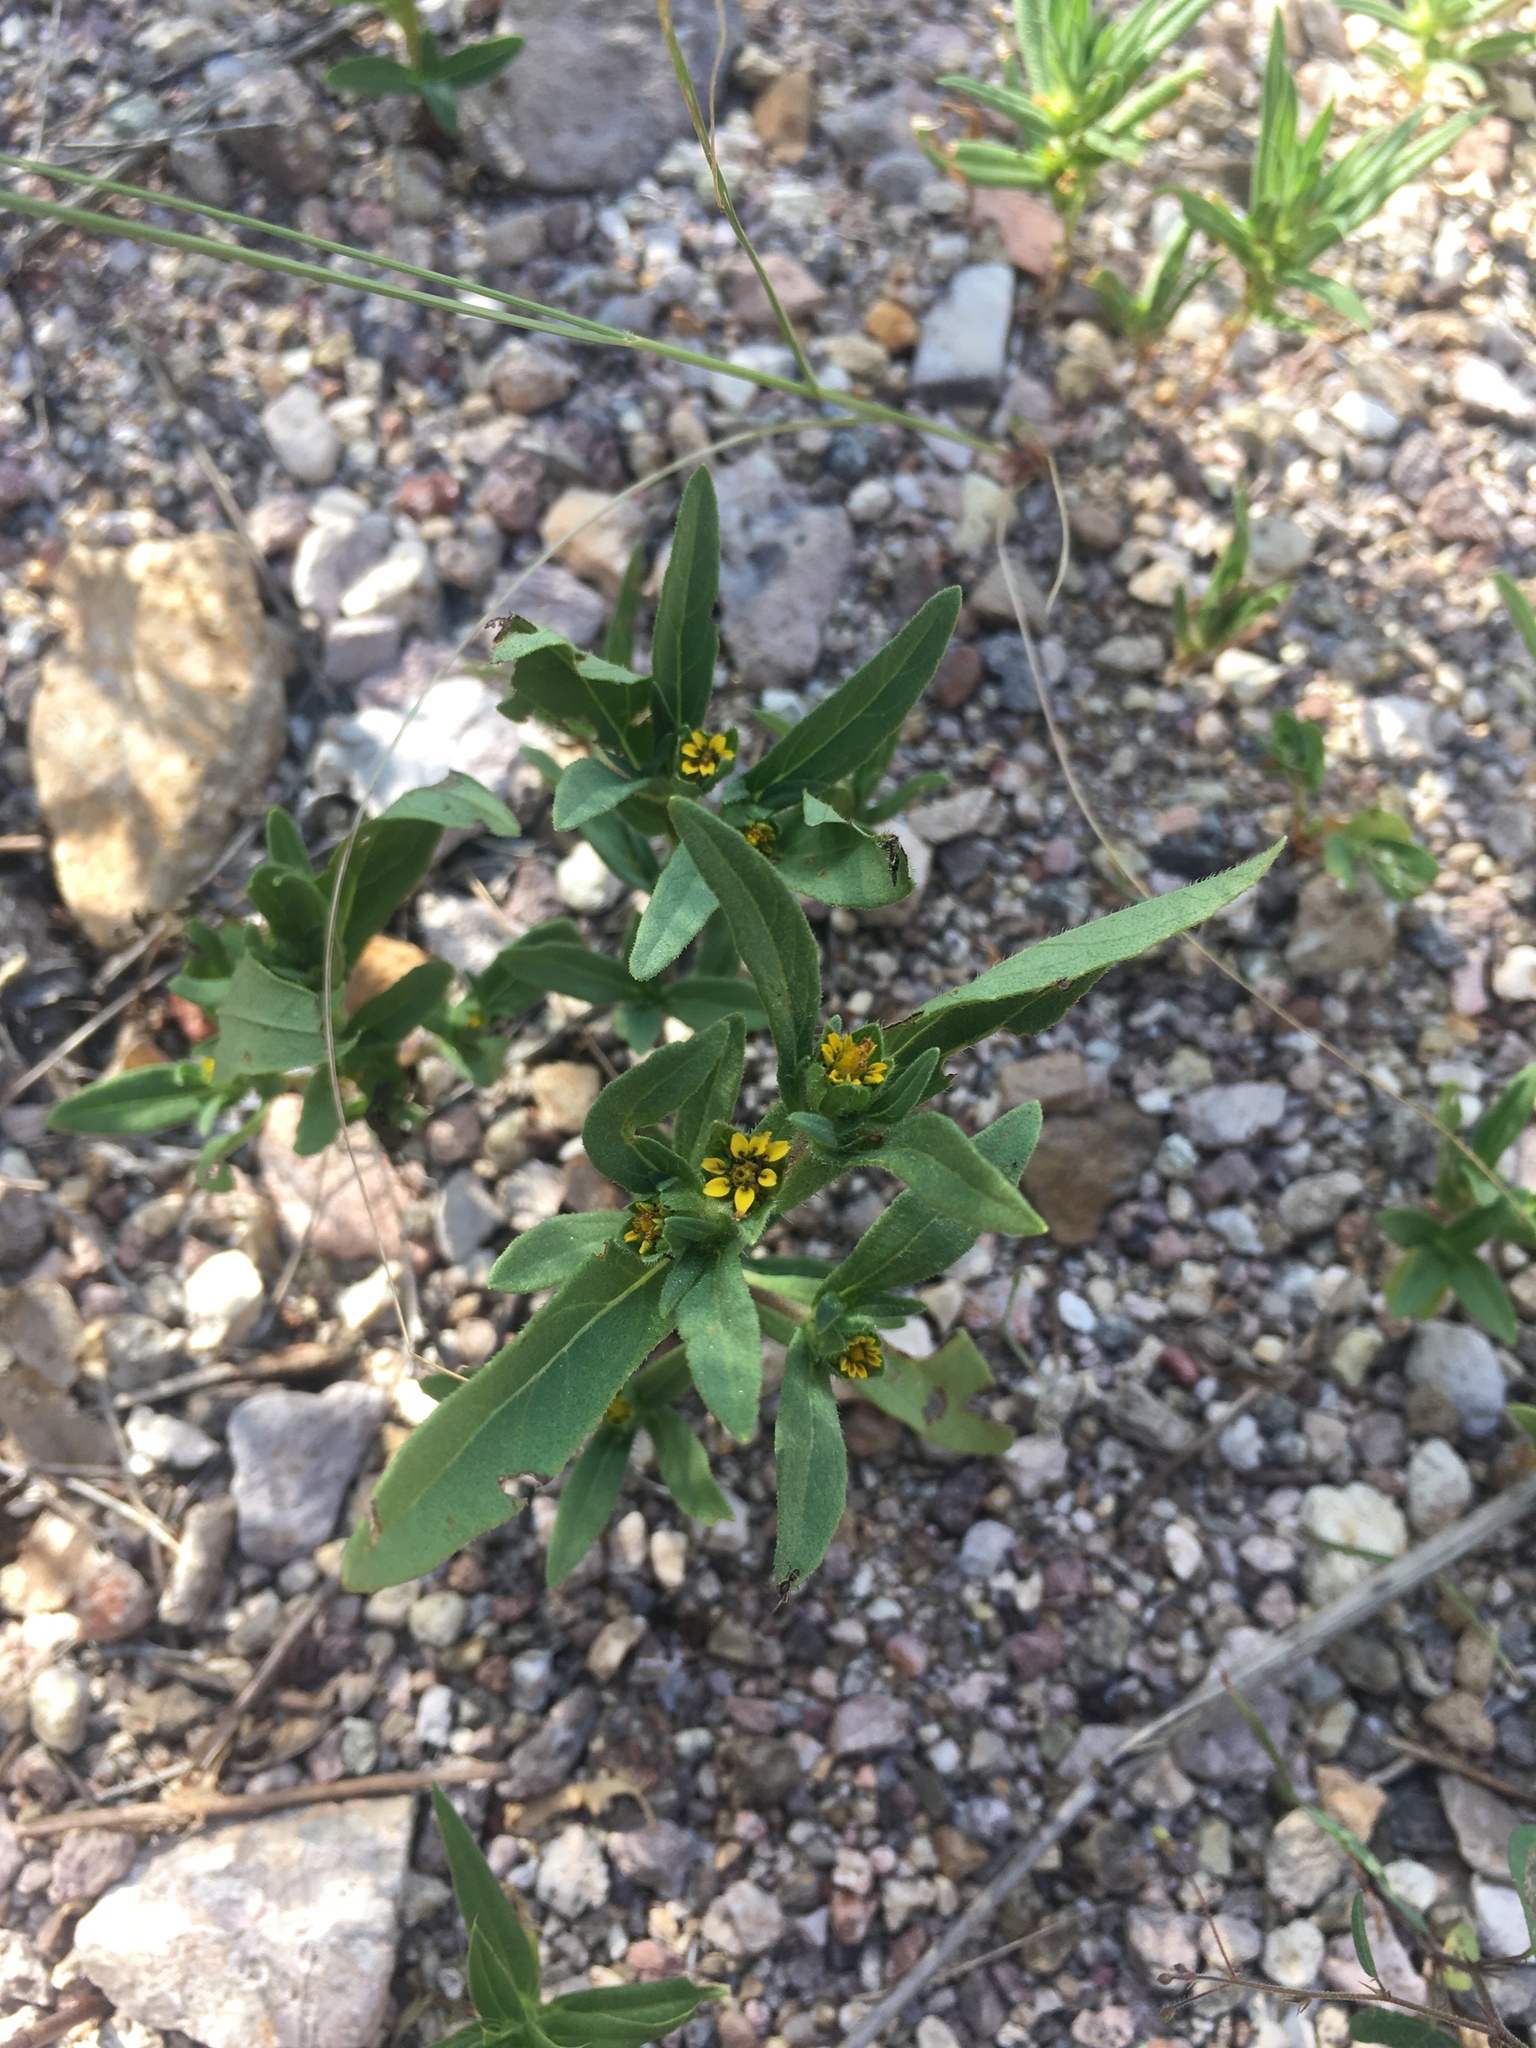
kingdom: Plantae
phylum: Tracheophyta
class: Magnoliopsida
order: Asterales
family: Asteraceae
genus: Melampodium
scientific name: Melampodium strigosum
